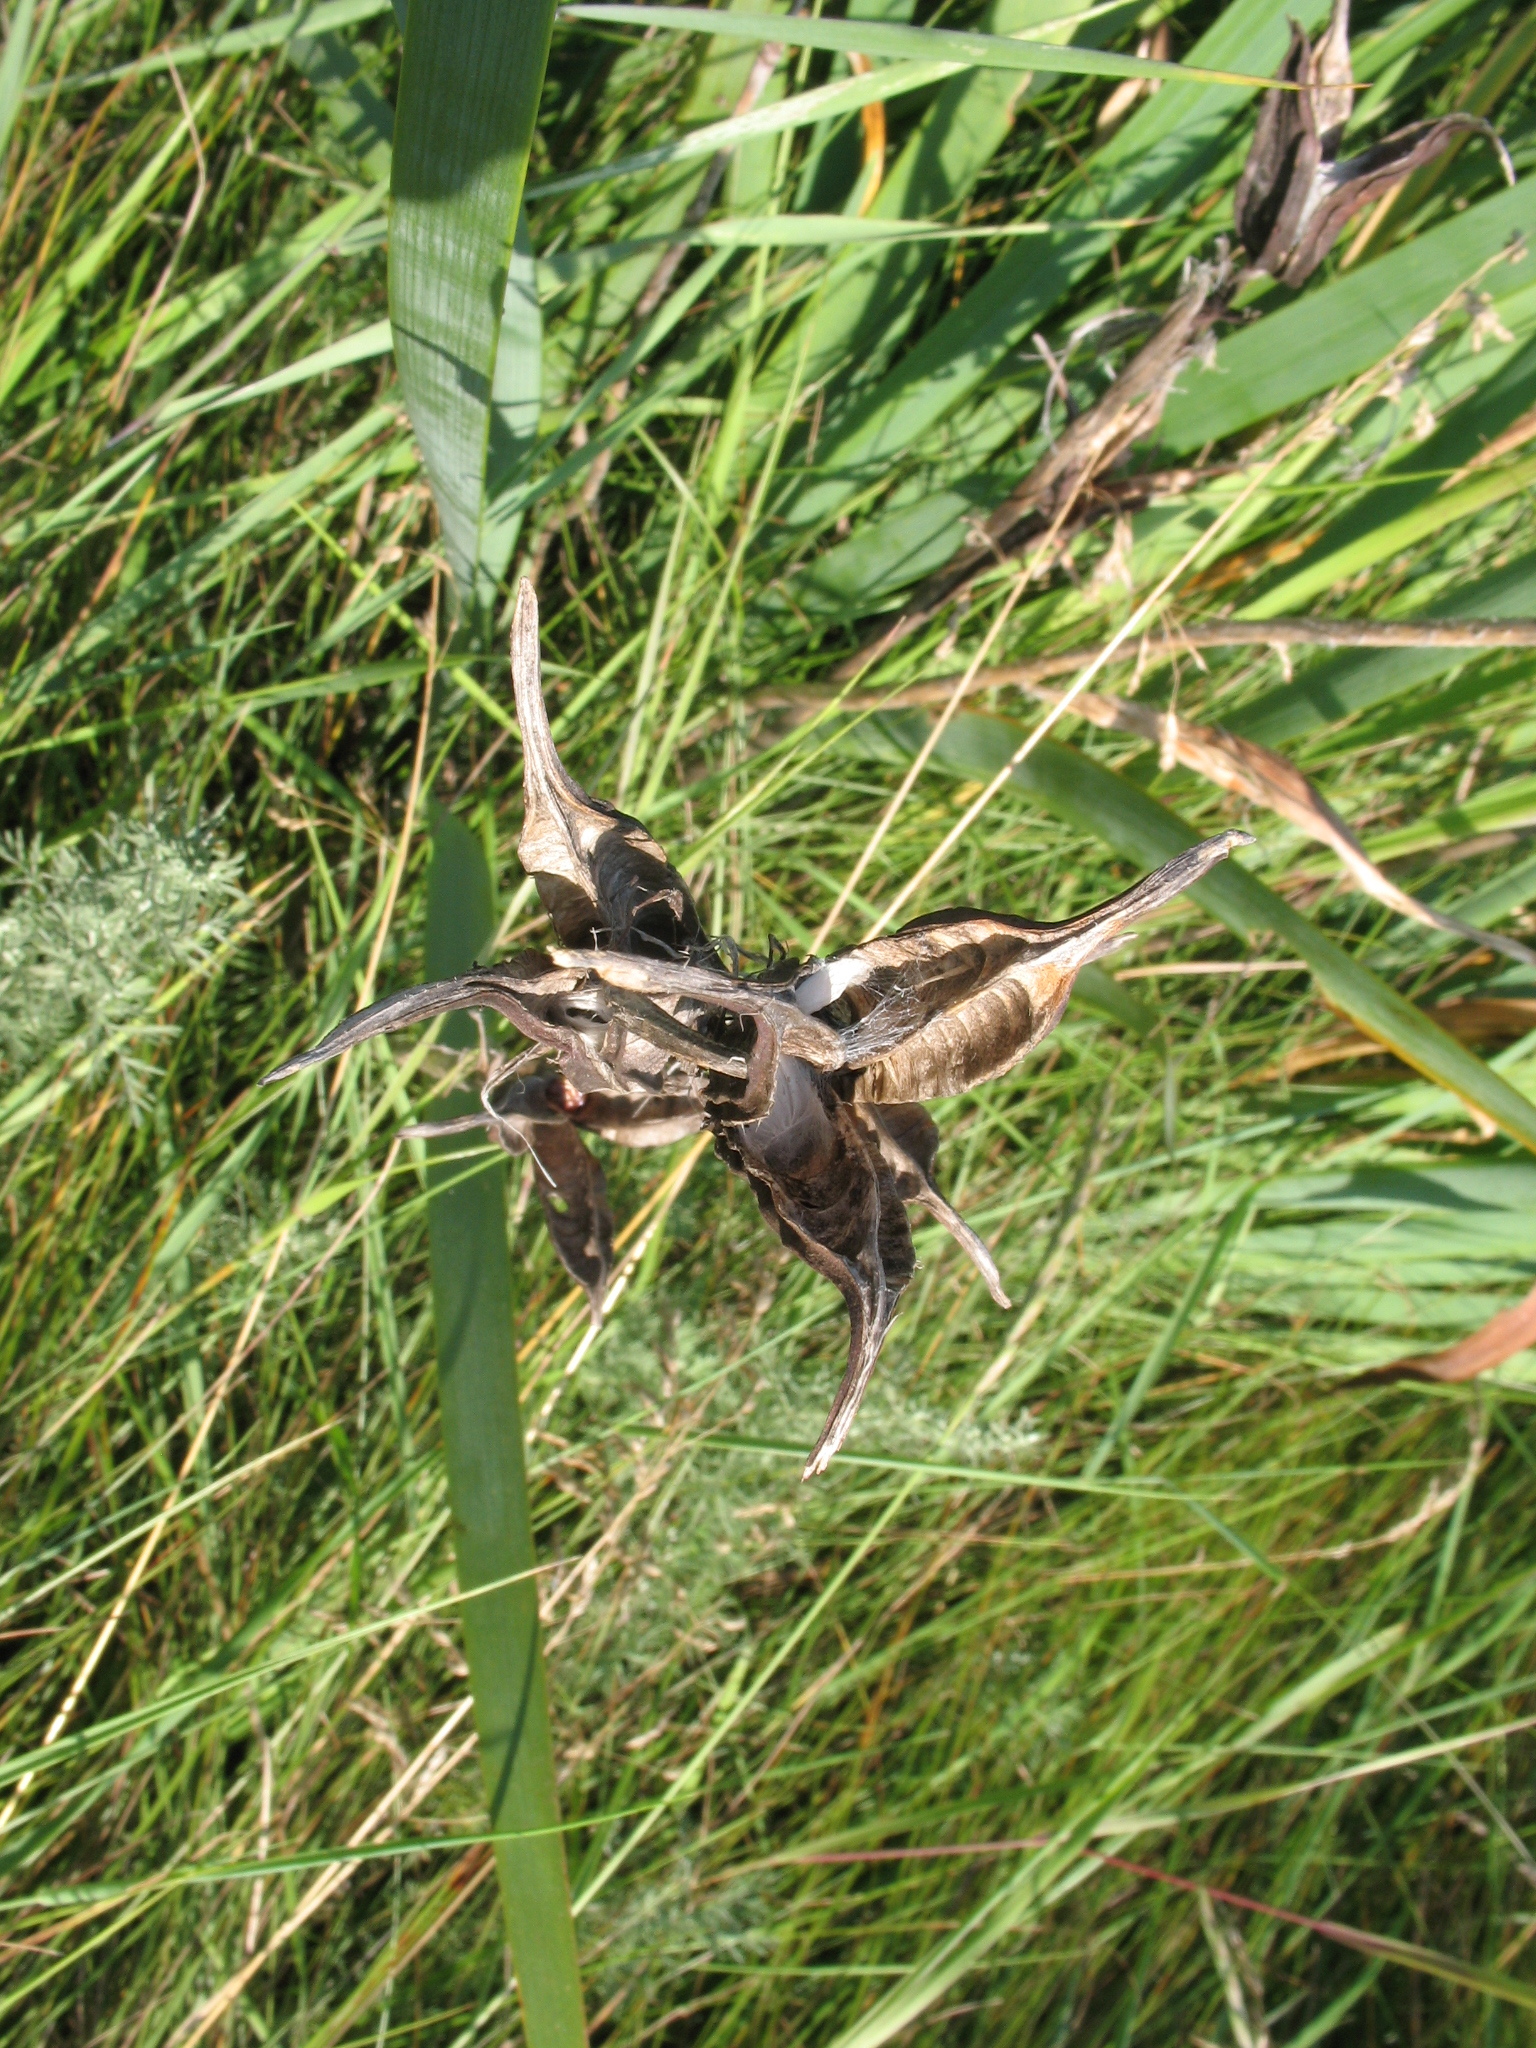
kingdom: Plantae
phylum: Tracheophyta
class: Liliopsida
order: Asparagales
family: Iridaceae
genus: Iris
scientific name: Iris halophila
